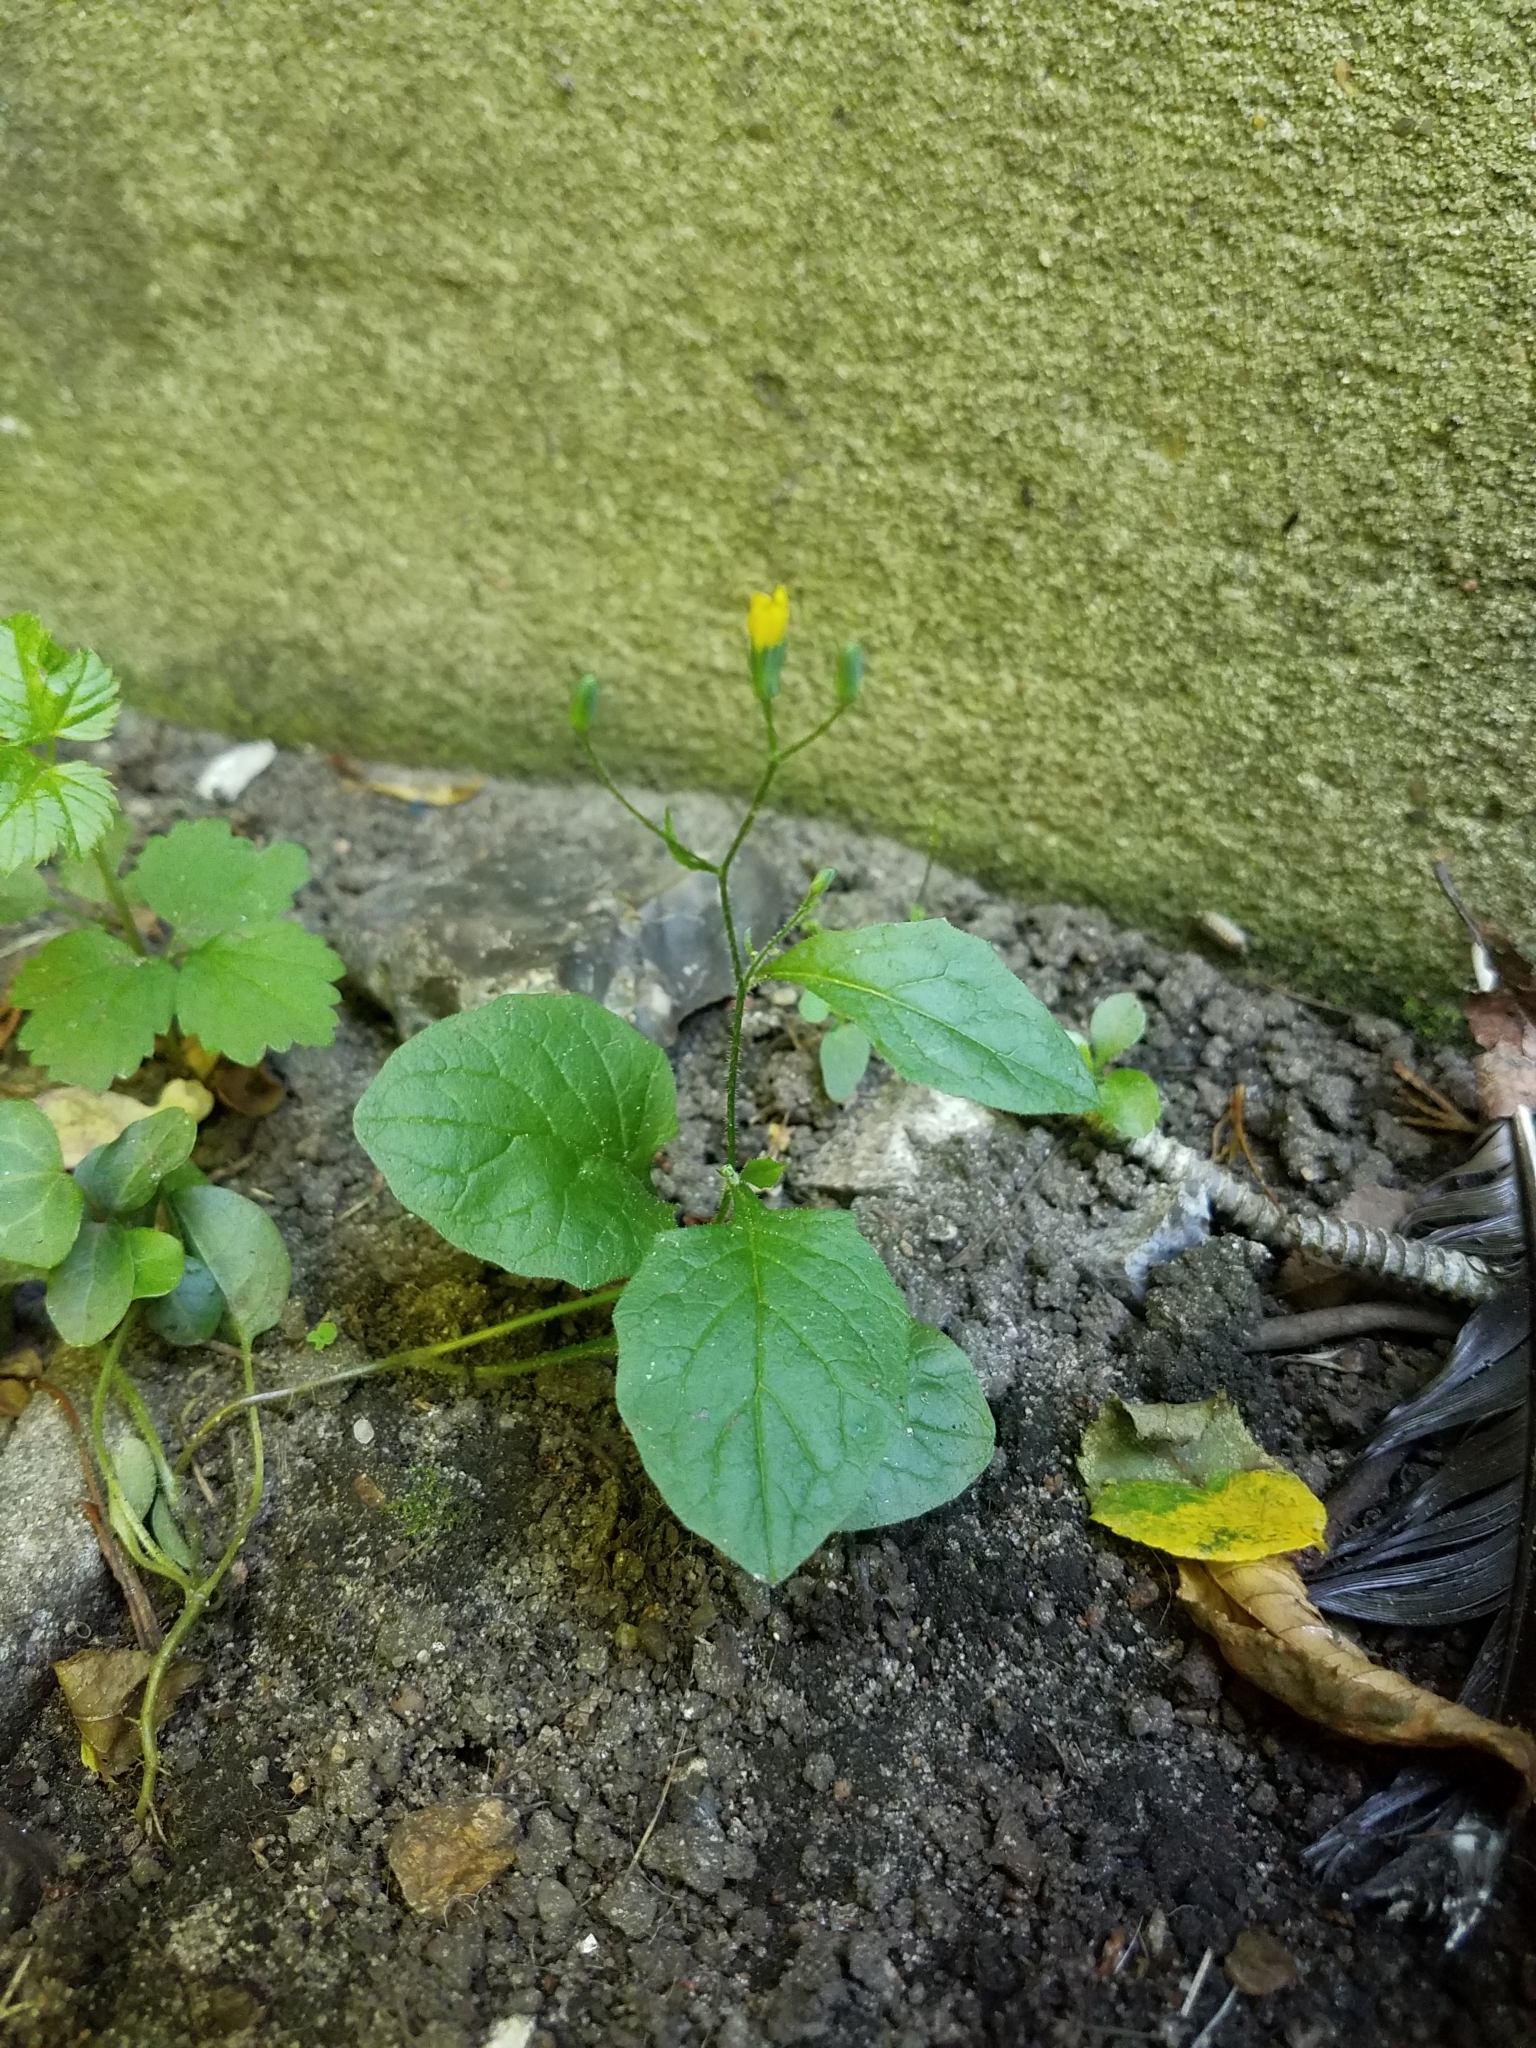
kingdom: Plantae
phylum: Tracheophyta
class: Magnoliopsida
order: Asterales
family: Asteraceae
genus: Lapsana
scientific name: Lapsana communis
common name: Nipplewort
